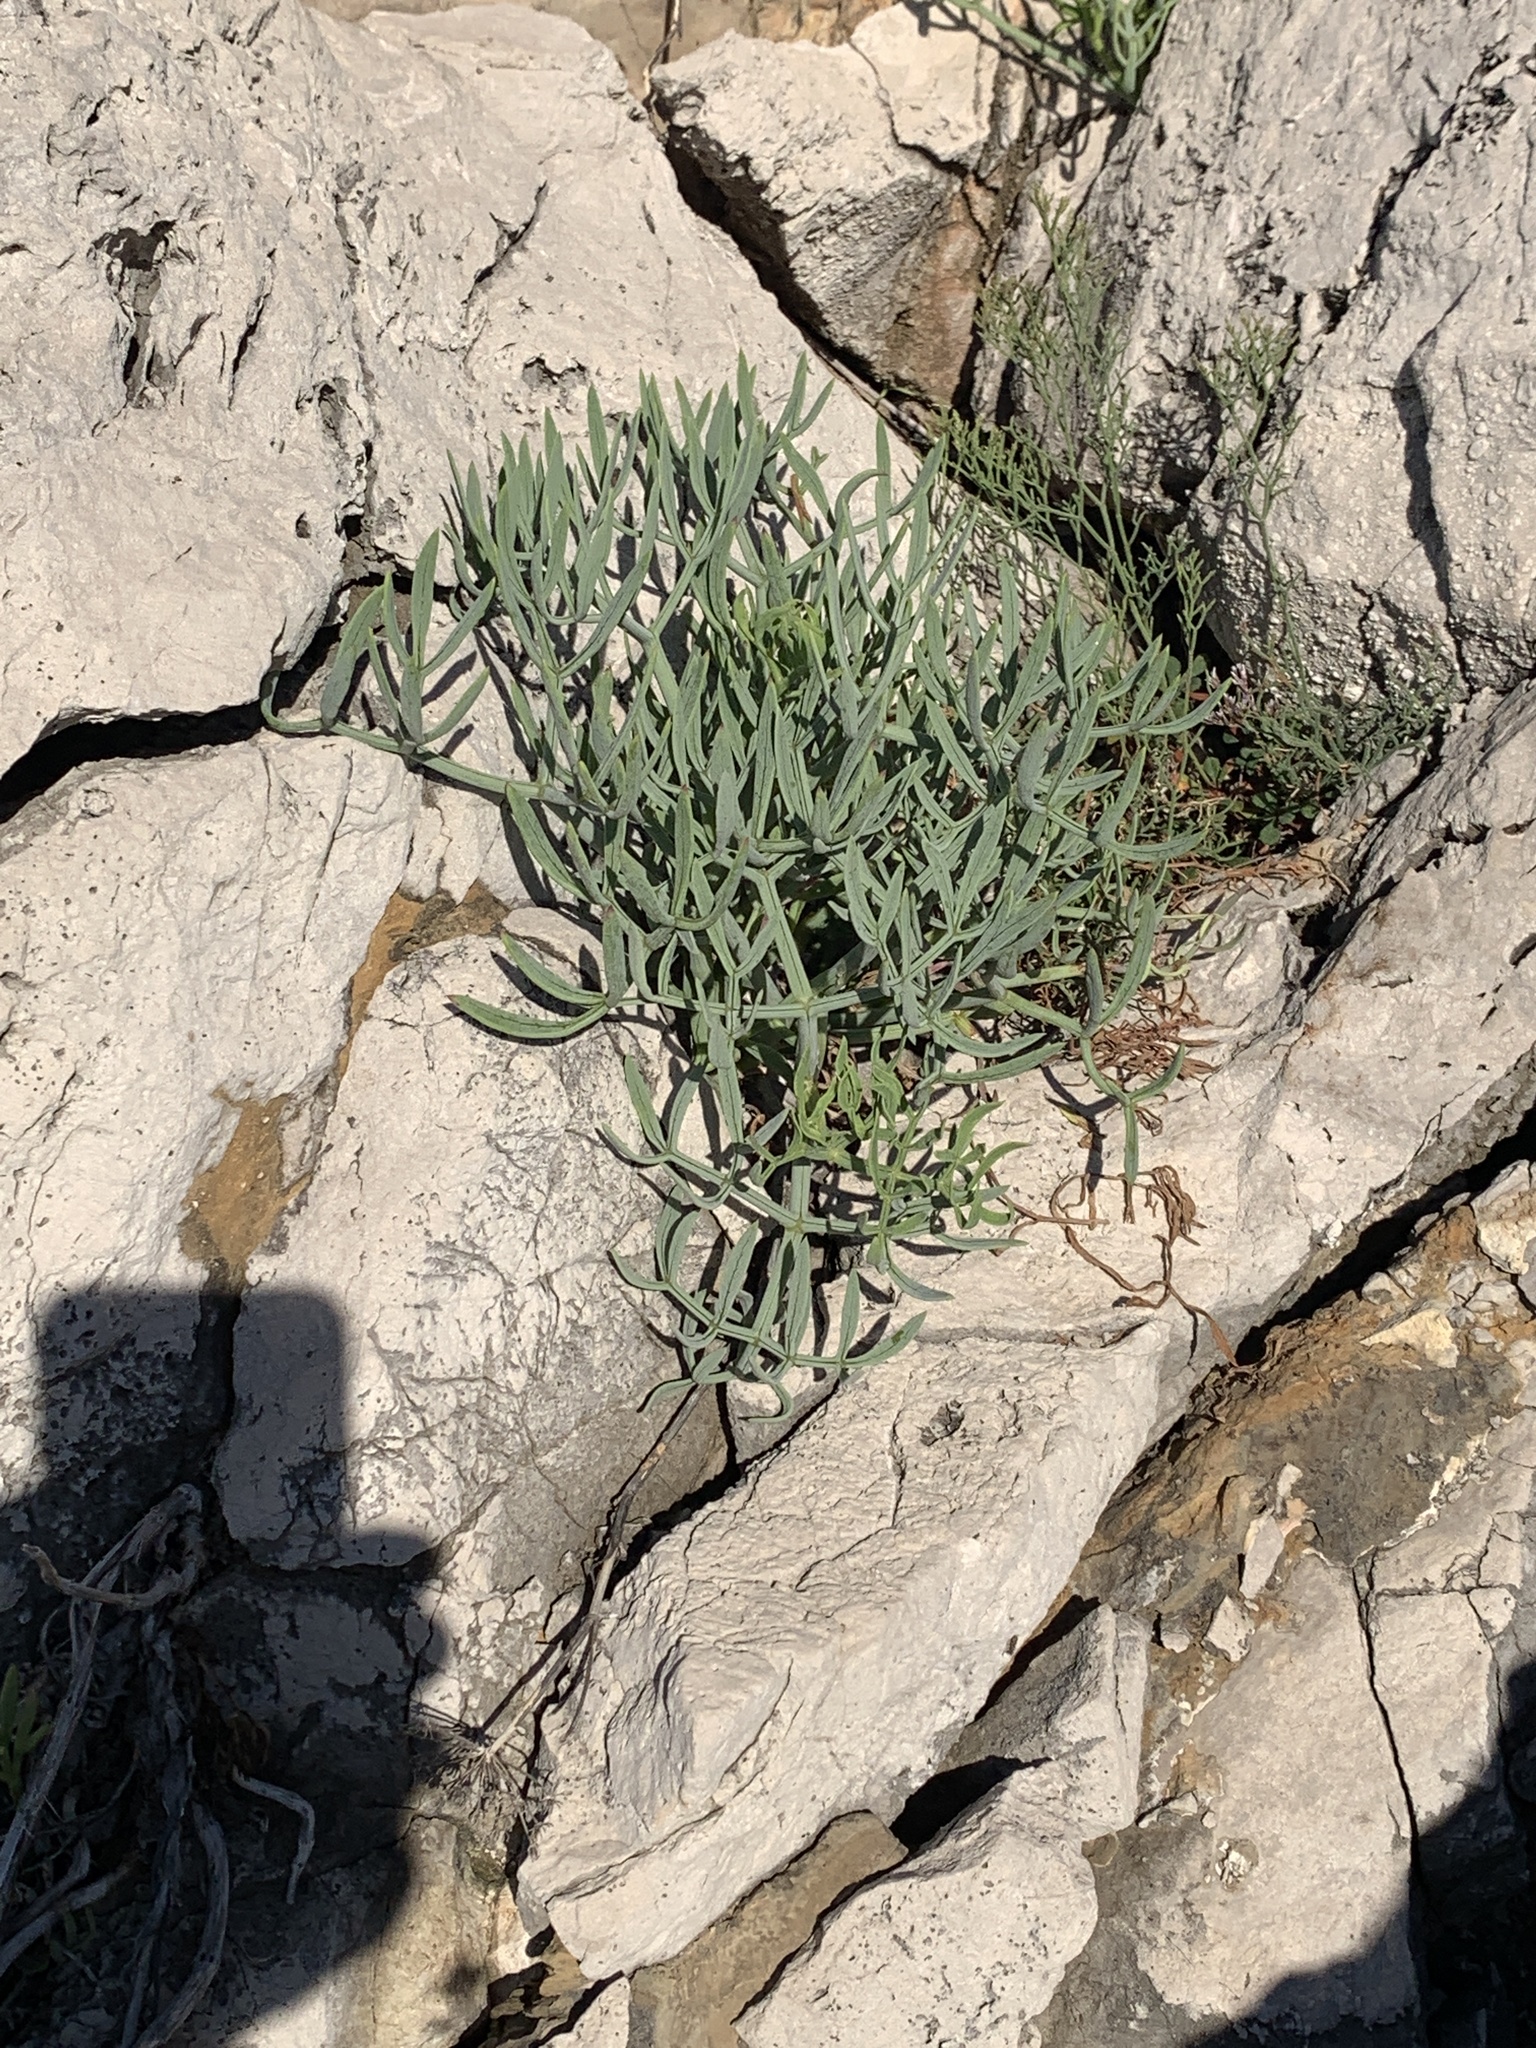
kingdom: Plantae
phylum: Tracheophyta
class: Magnoliopsida
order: Apiales
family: Apiaceae
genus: Crithmum
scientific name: Crithmum maritimum
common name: Rock samphire
